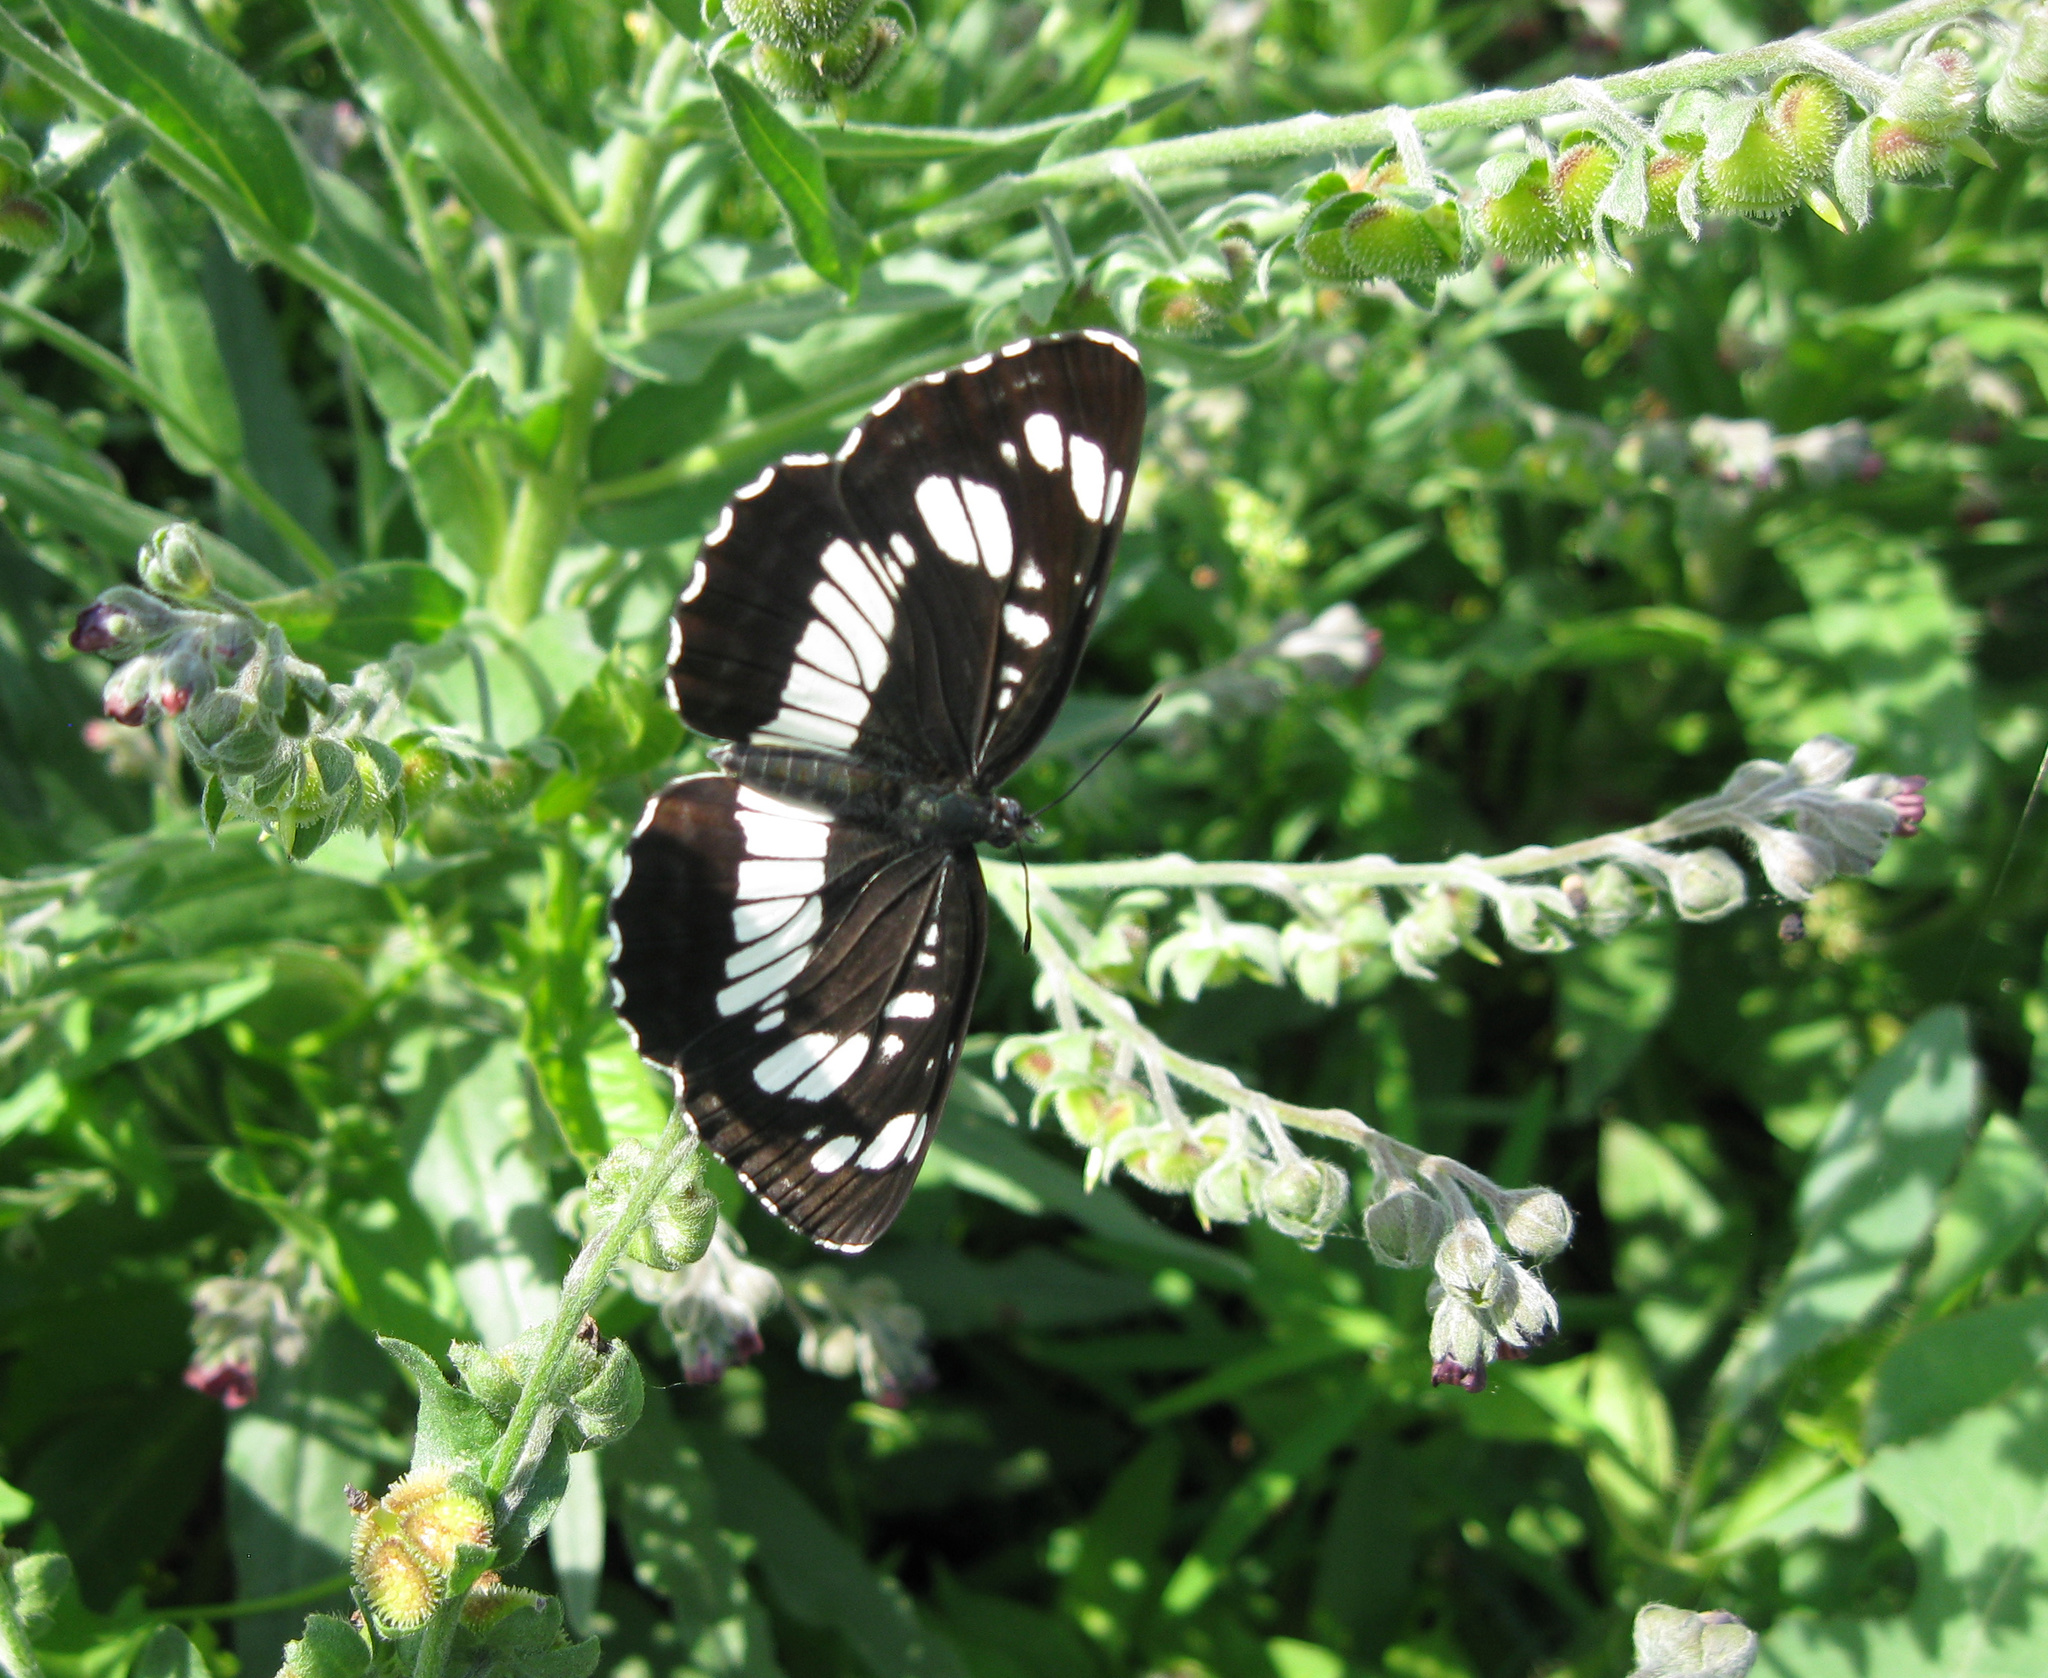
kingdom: Animalia
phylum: Arthropoda
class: Insecta
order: Lepidoptera
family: Nymphalidae
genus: Neptis
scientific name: Neptis rivularis
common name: Hungarian glider
